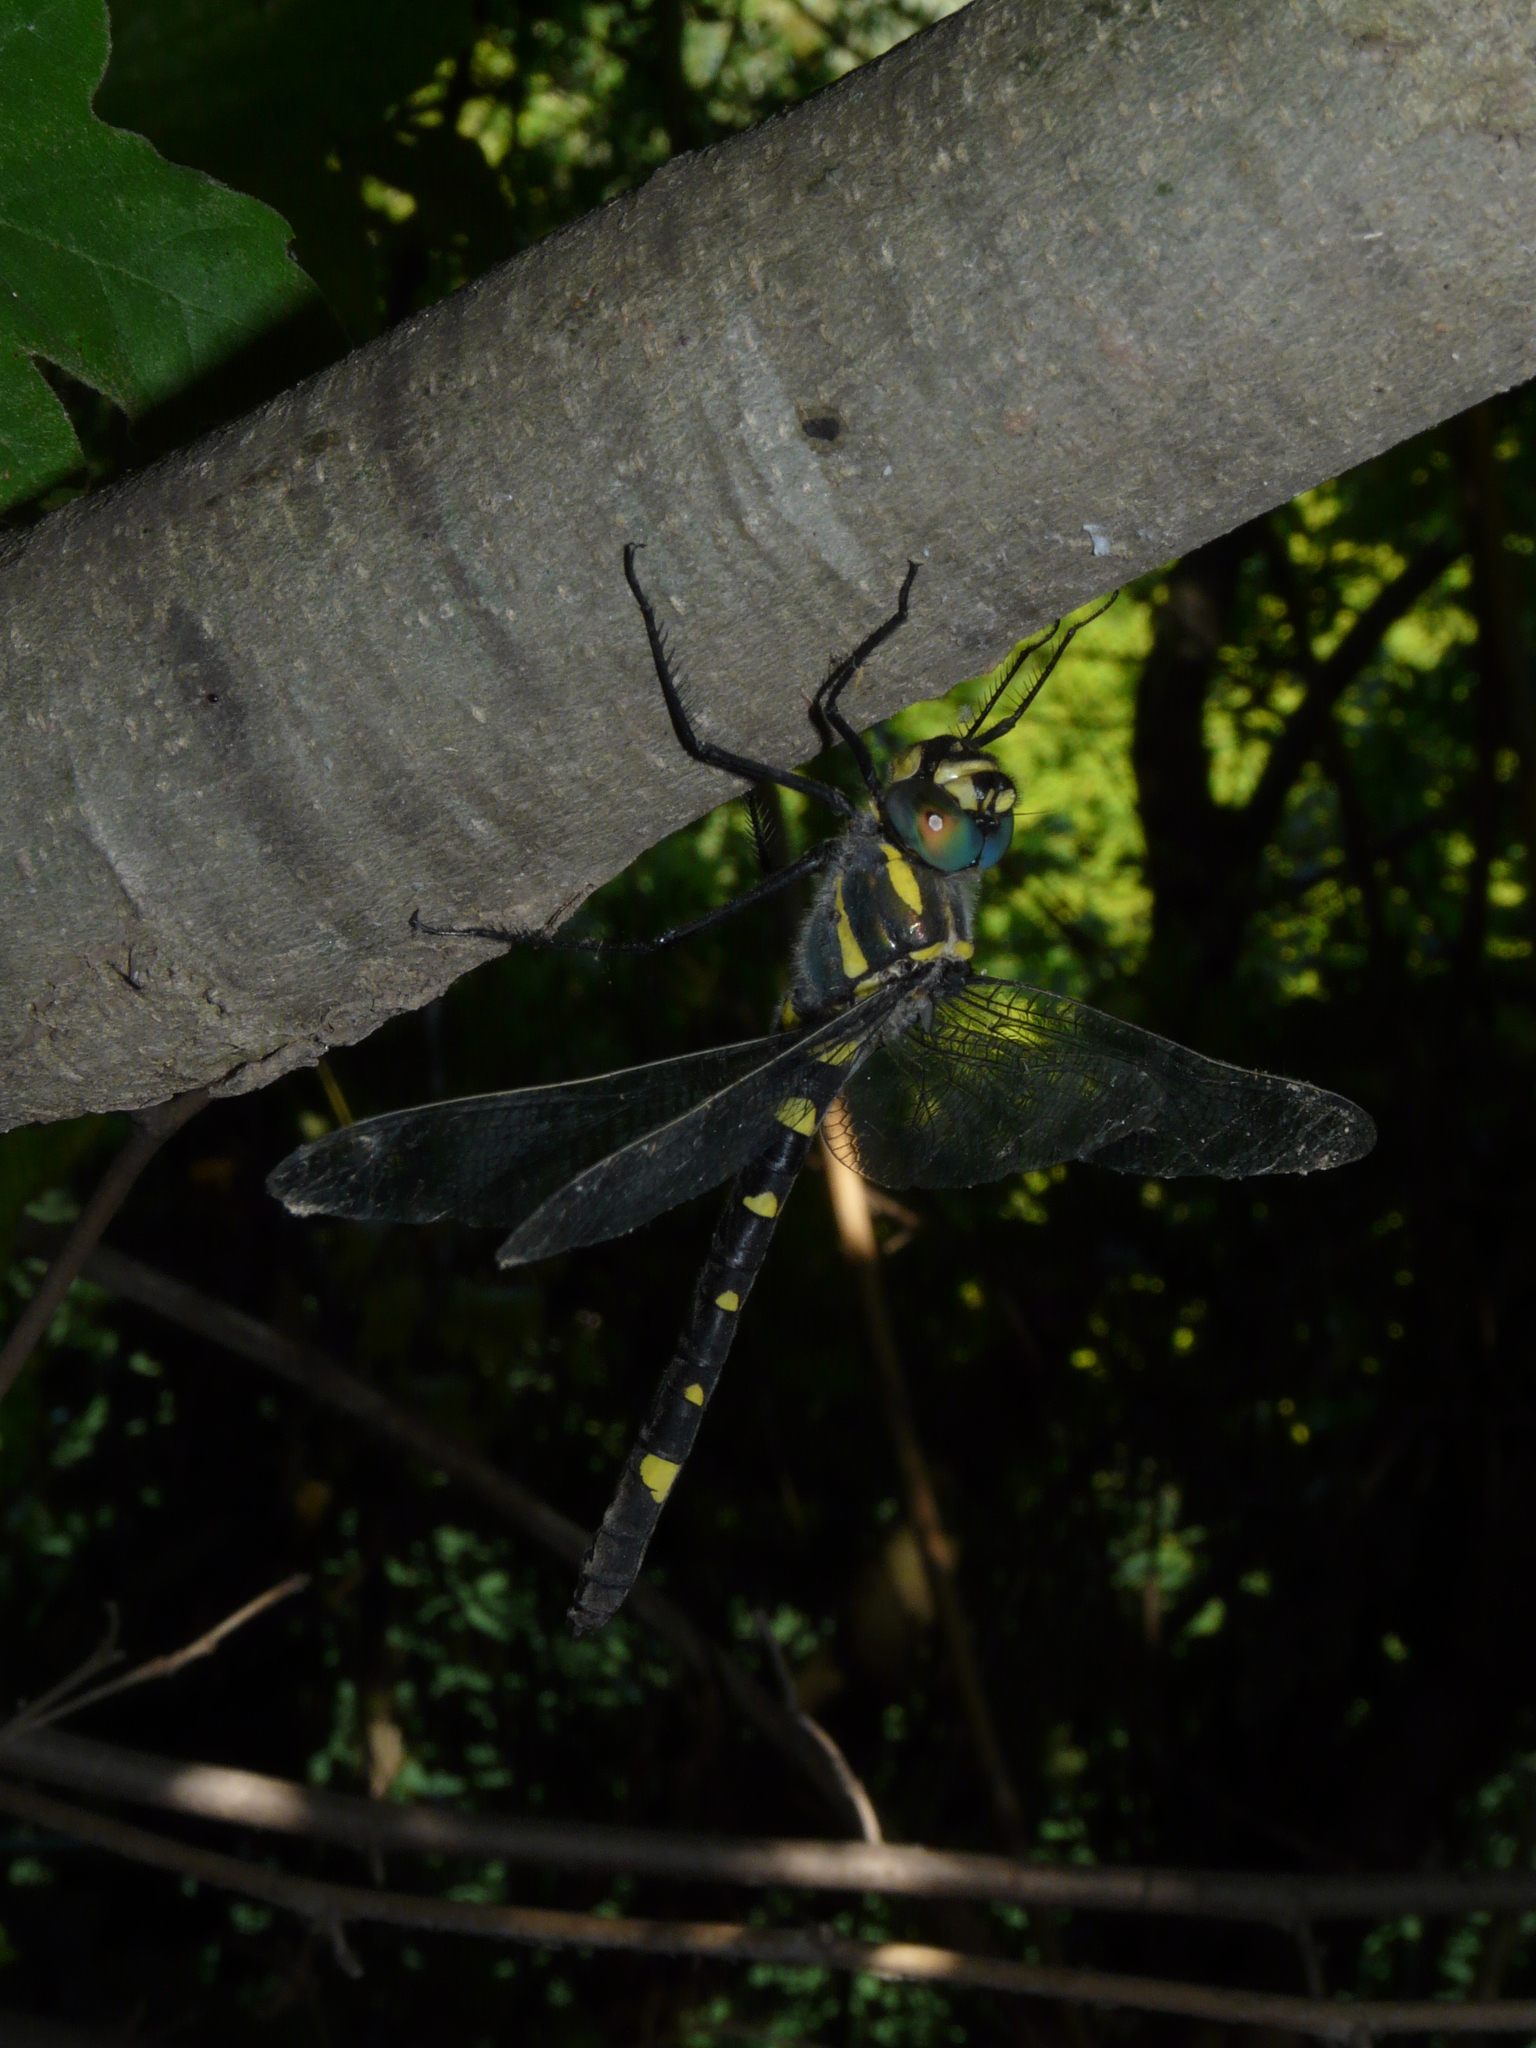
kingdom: Animalia
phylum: Arthropoda
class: Insecta
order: Odonata
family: Macromiidae
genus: Macromia
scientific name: Macromia splendens
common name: Shining macromia dragonfly
